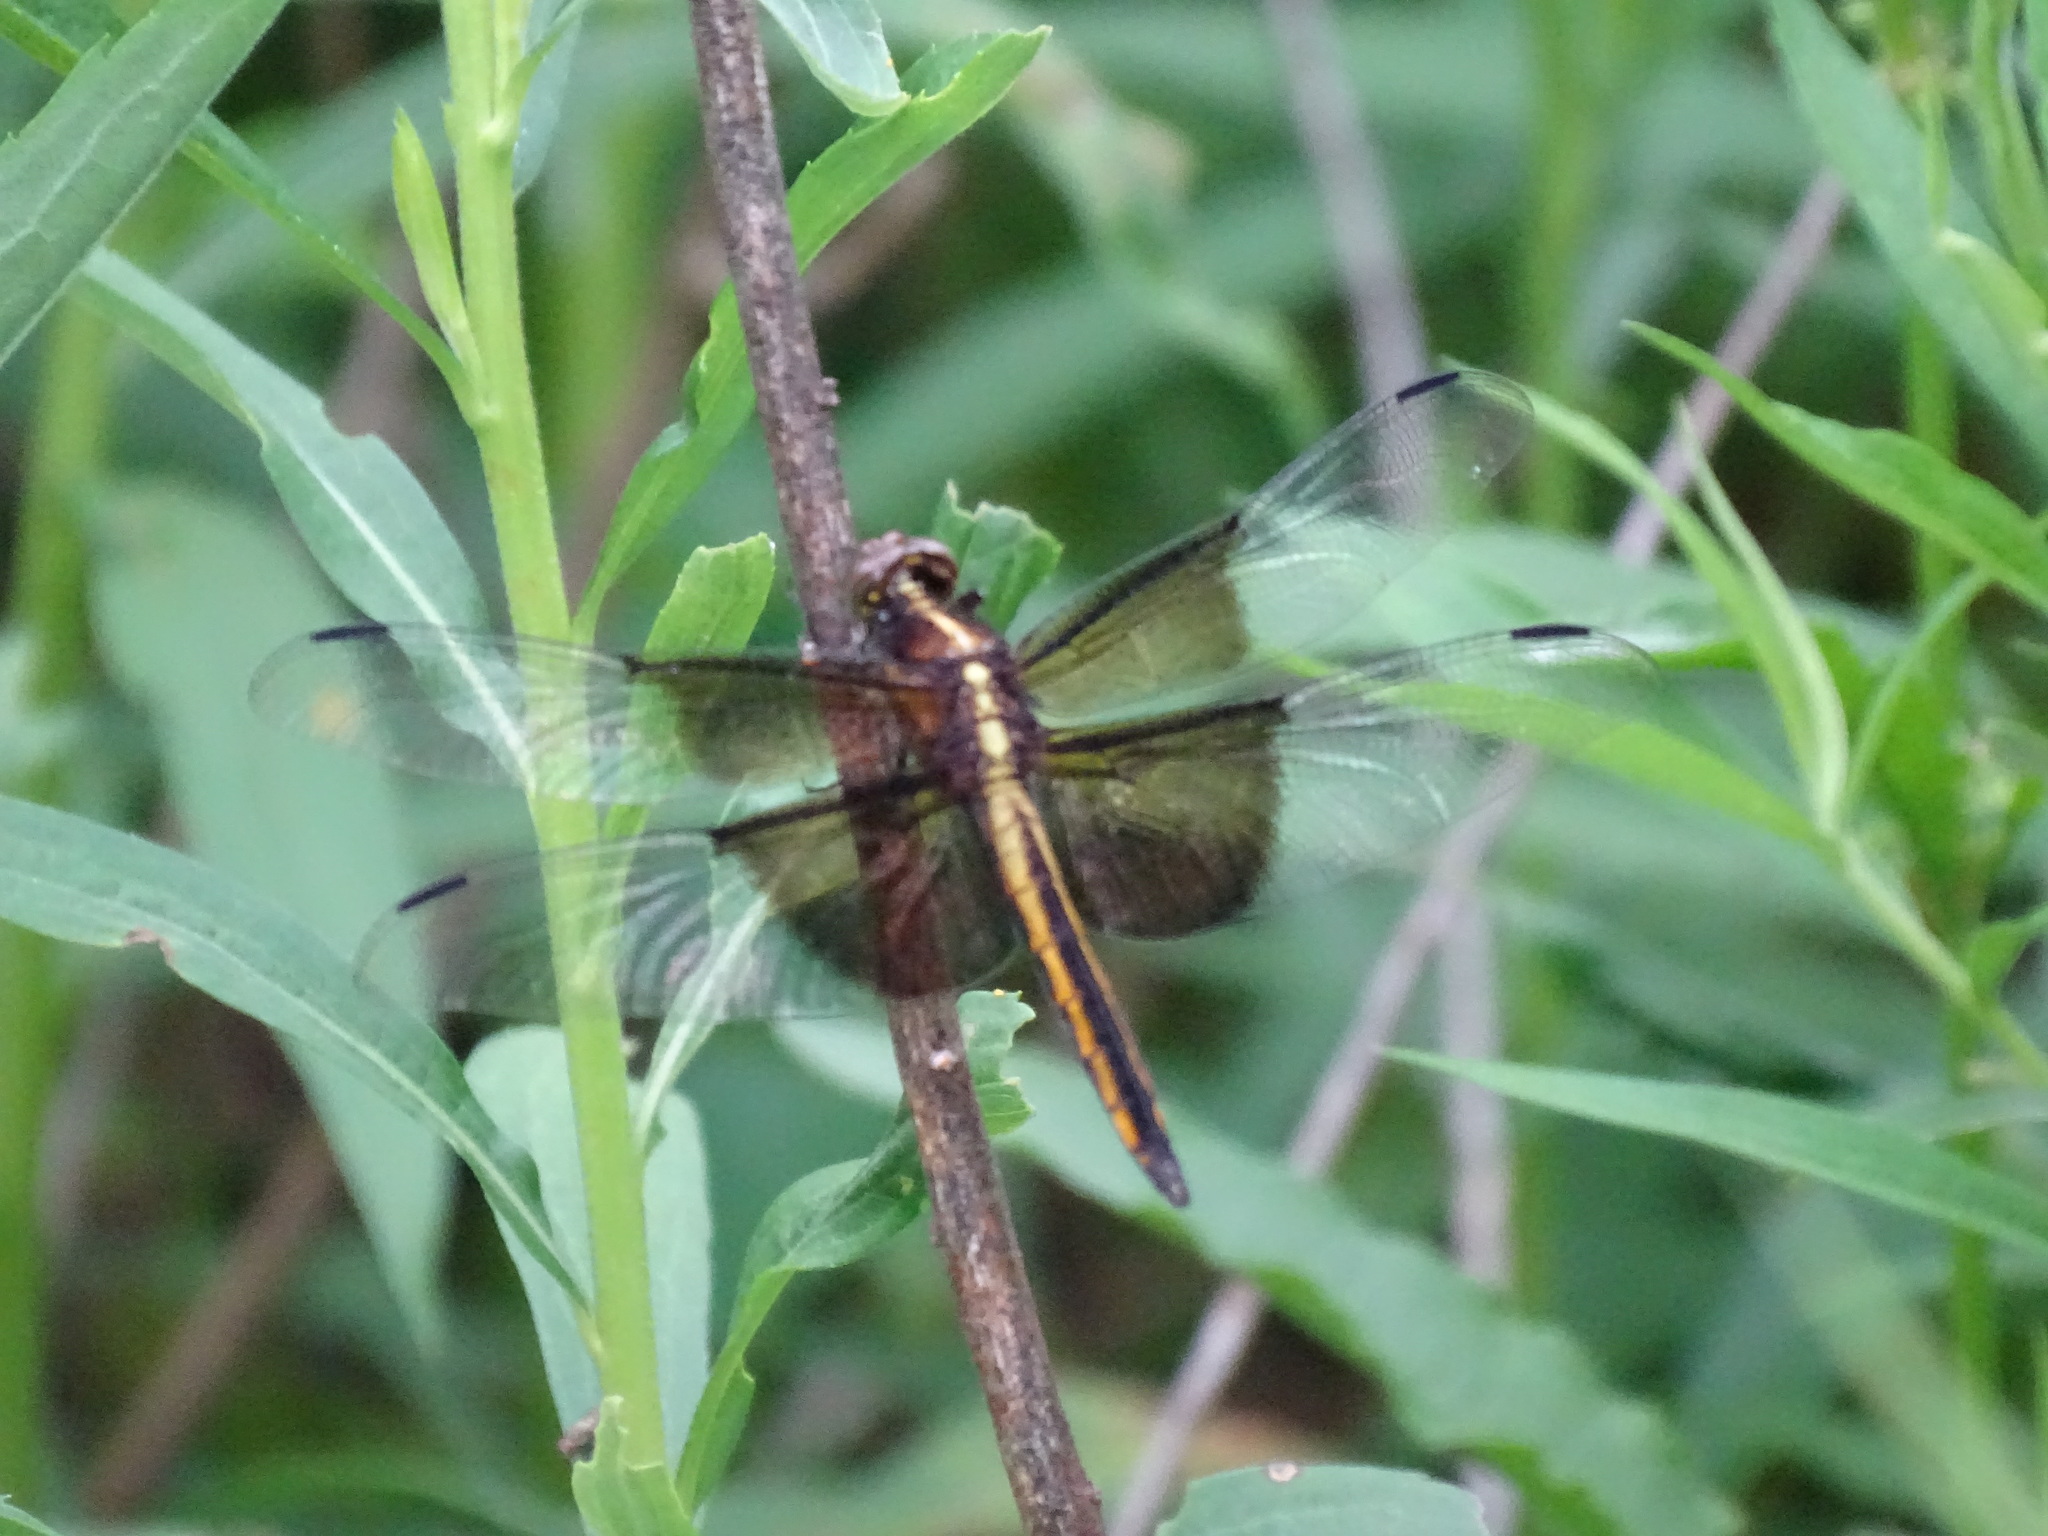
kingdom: Animalia
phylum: Arthropoda
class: Insecta
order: Odonata
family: Libellulidae
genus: Libellula
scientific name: Libellula luctuosa
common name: Widow skimmer
